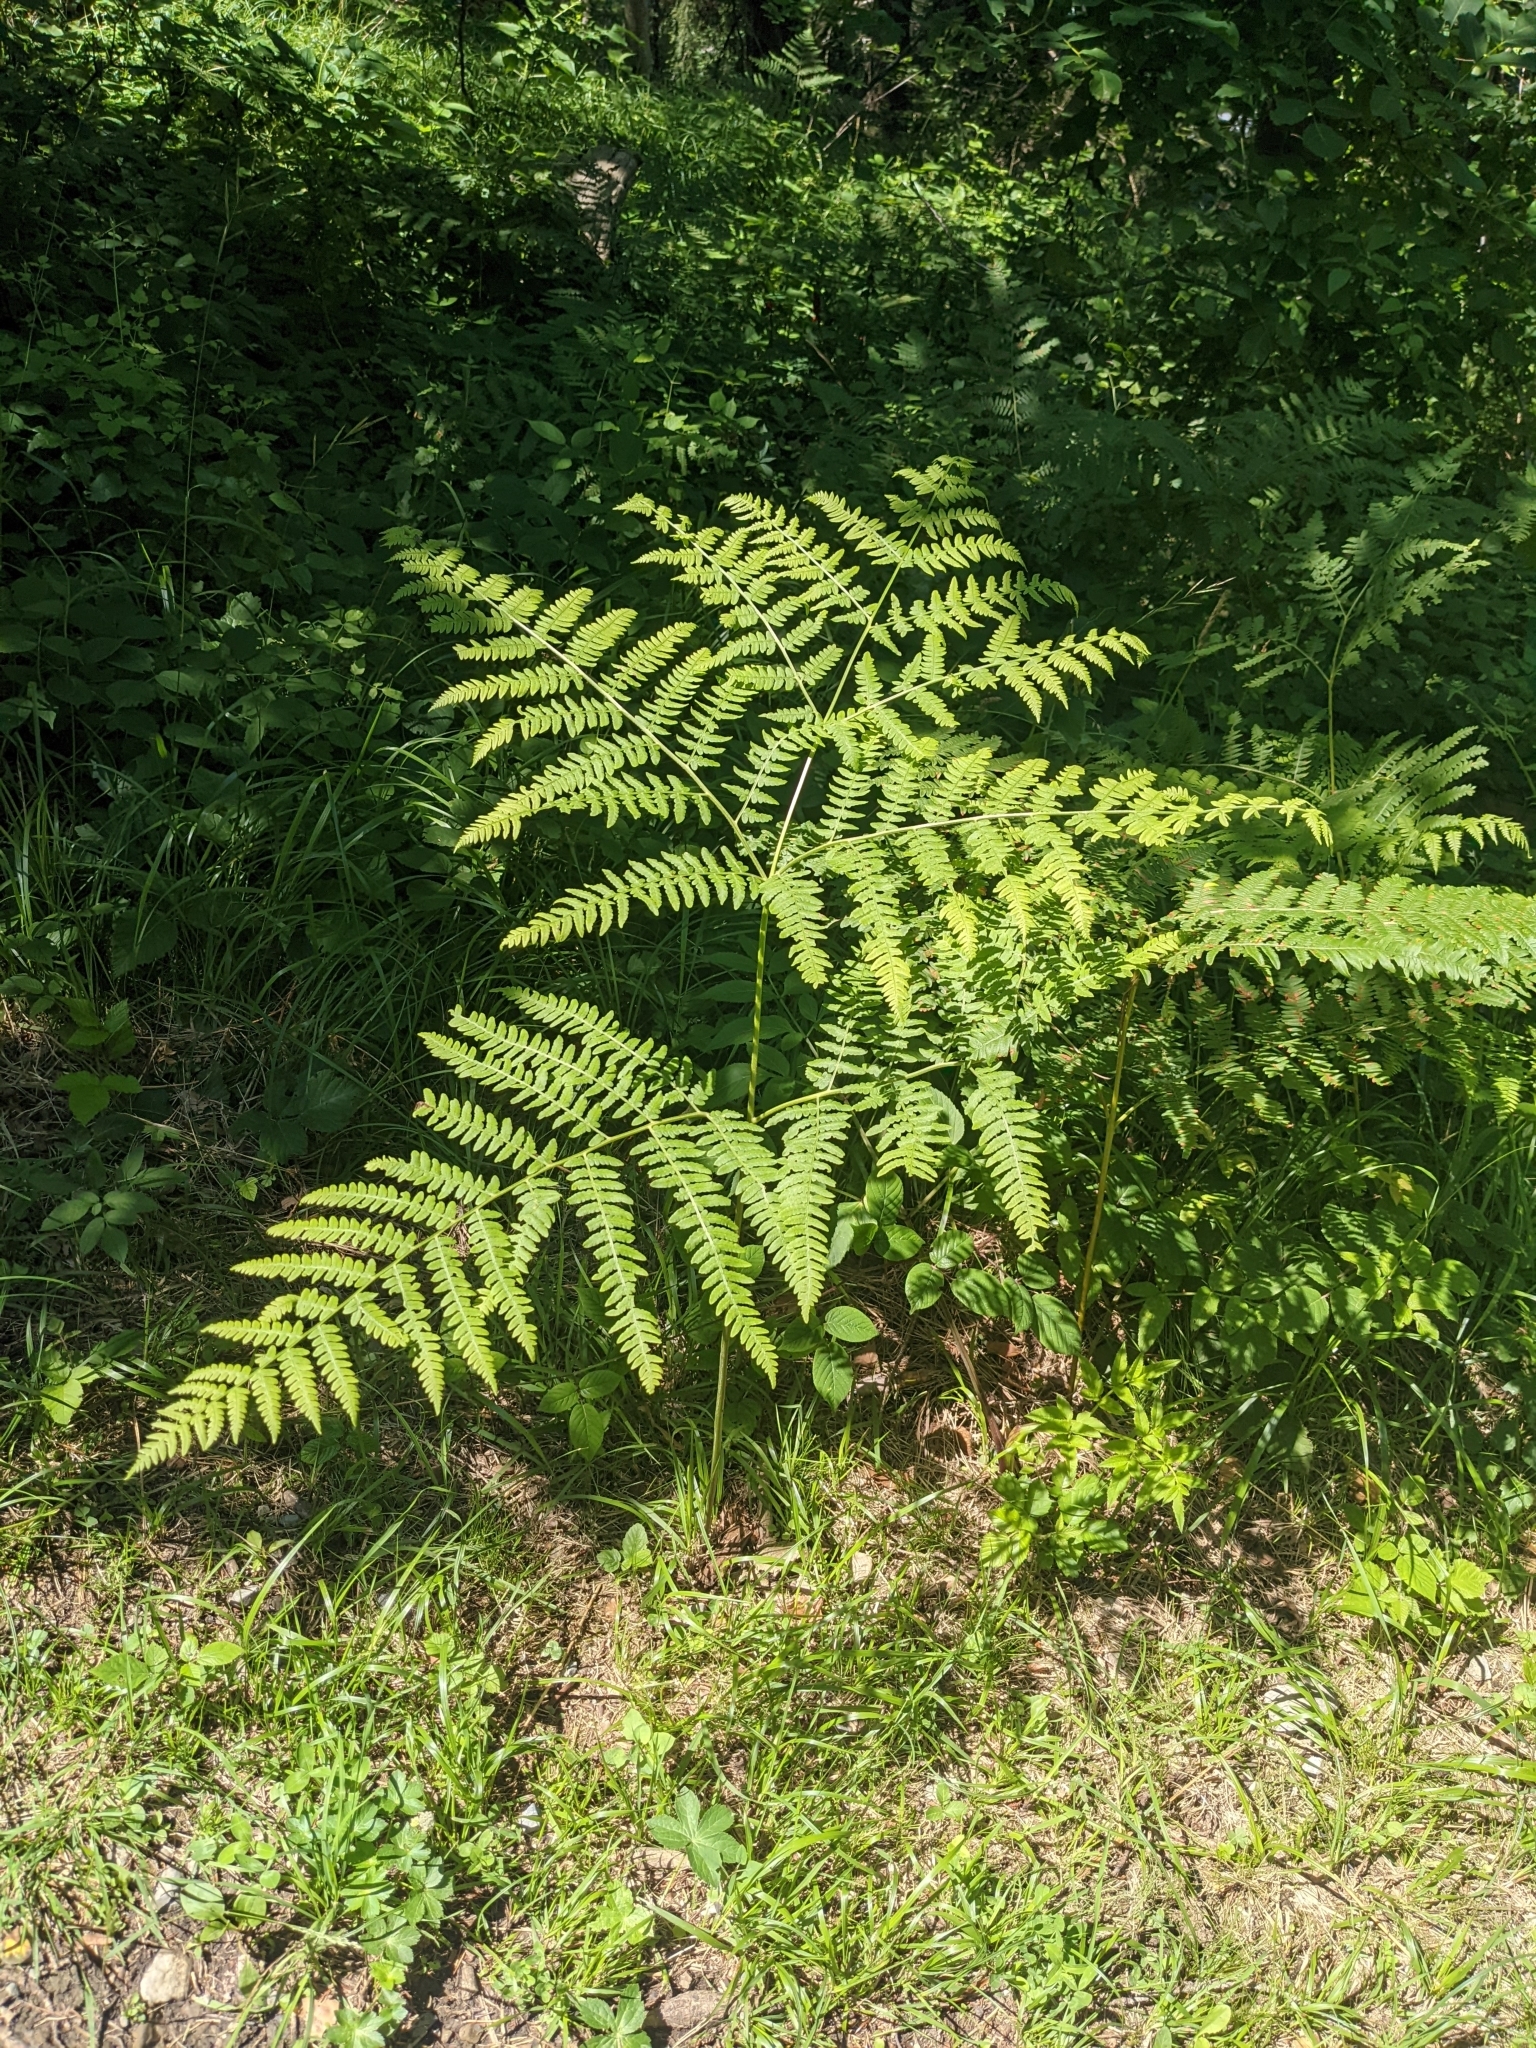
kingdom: Plantae
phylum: Tracheophyta
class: Polypodiopsida
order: Polypodiales
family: Dennstaedtiaceae
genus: Pteridium
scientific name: Pteridium aquilinum
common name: Bracken
